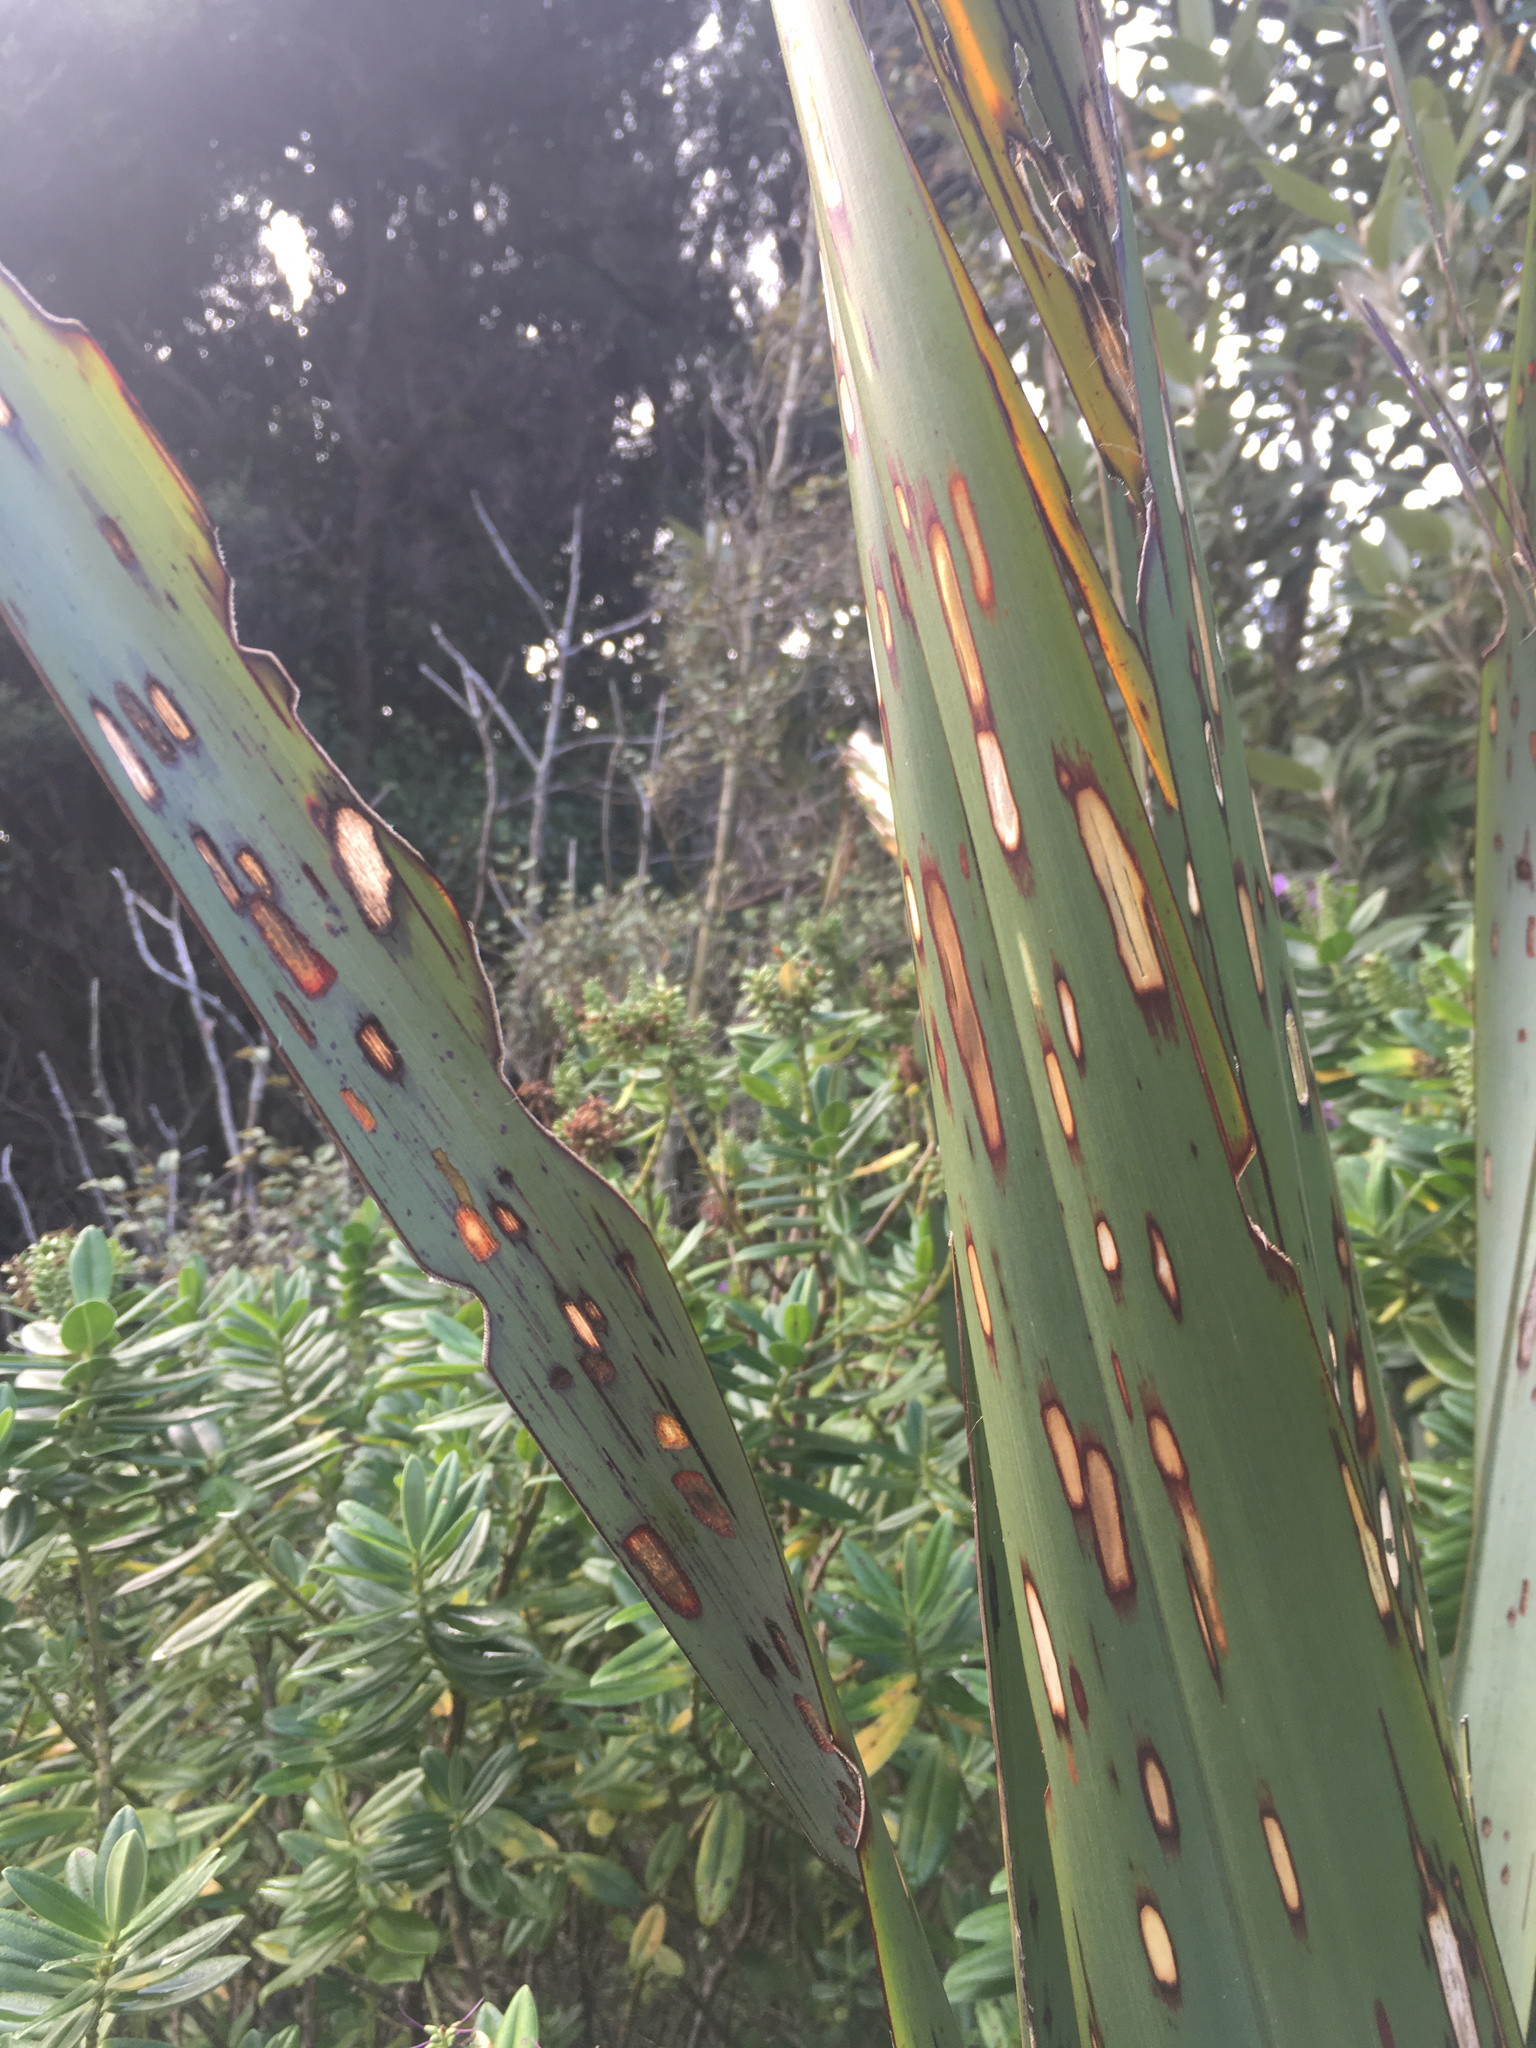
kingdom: Animalia
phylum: Arthropoda
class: Insecta
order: Lepidoptera
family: Geometridae
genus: Orthoclydon
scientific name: Orthoclydon praefectata
